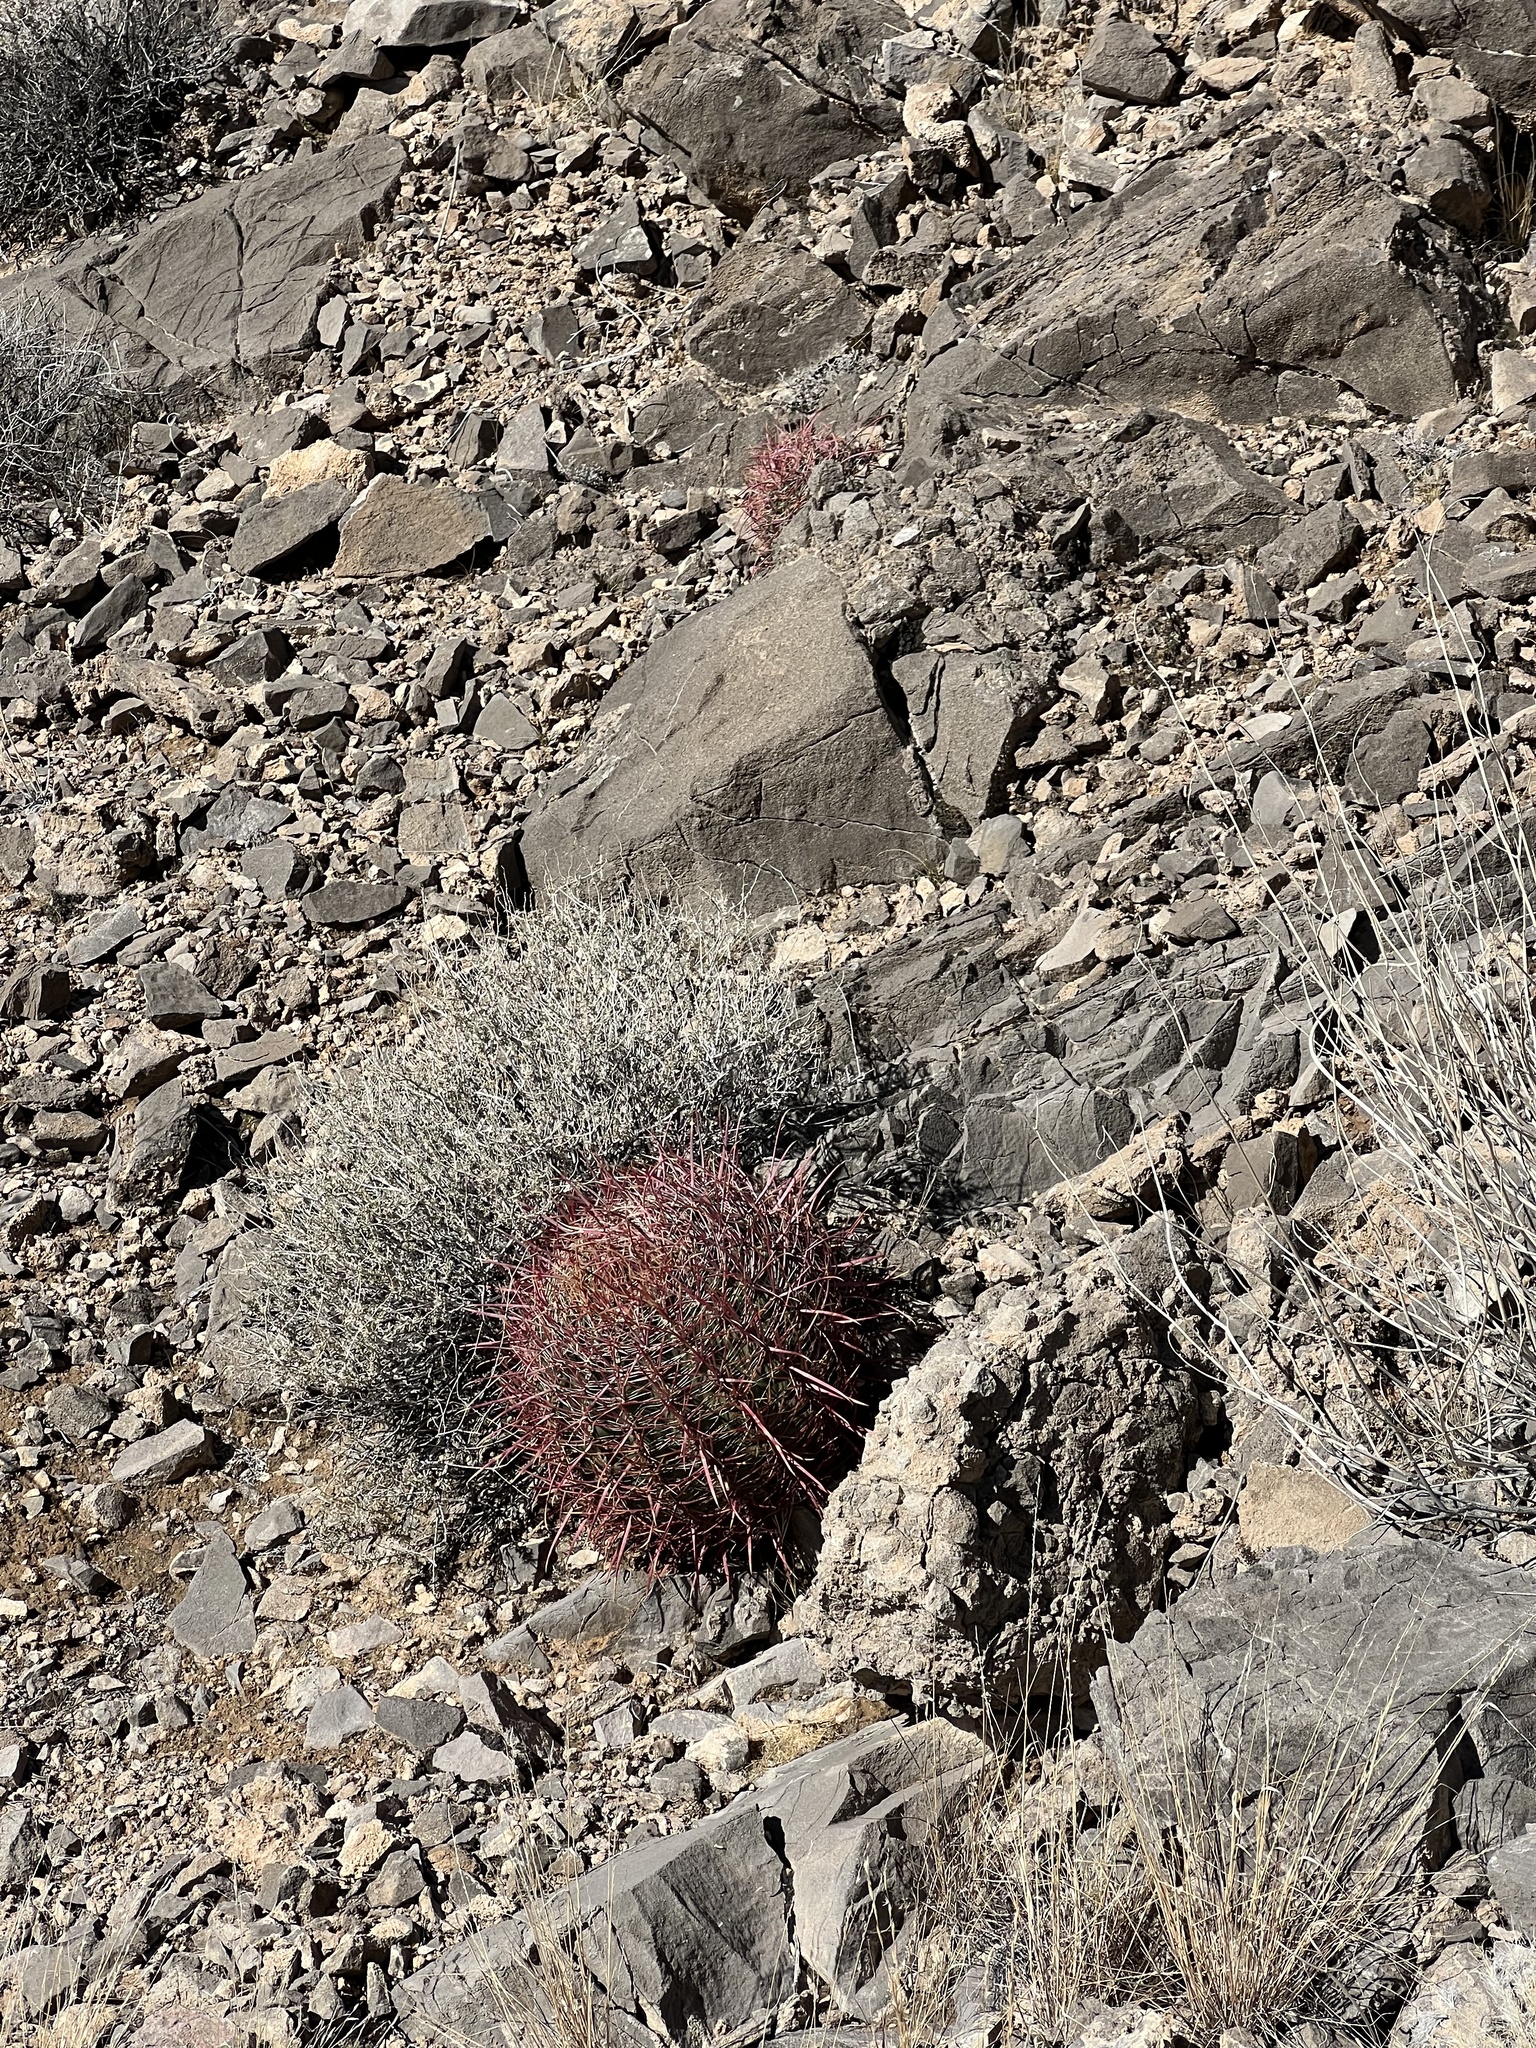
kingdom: Plantae
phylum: Tracheophyta
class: Magnoliopsida
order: Caryophyllales
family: Cactaceae
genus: Ferocactus
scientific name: Ferocactus cylindraceus
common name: California barrel cactus
